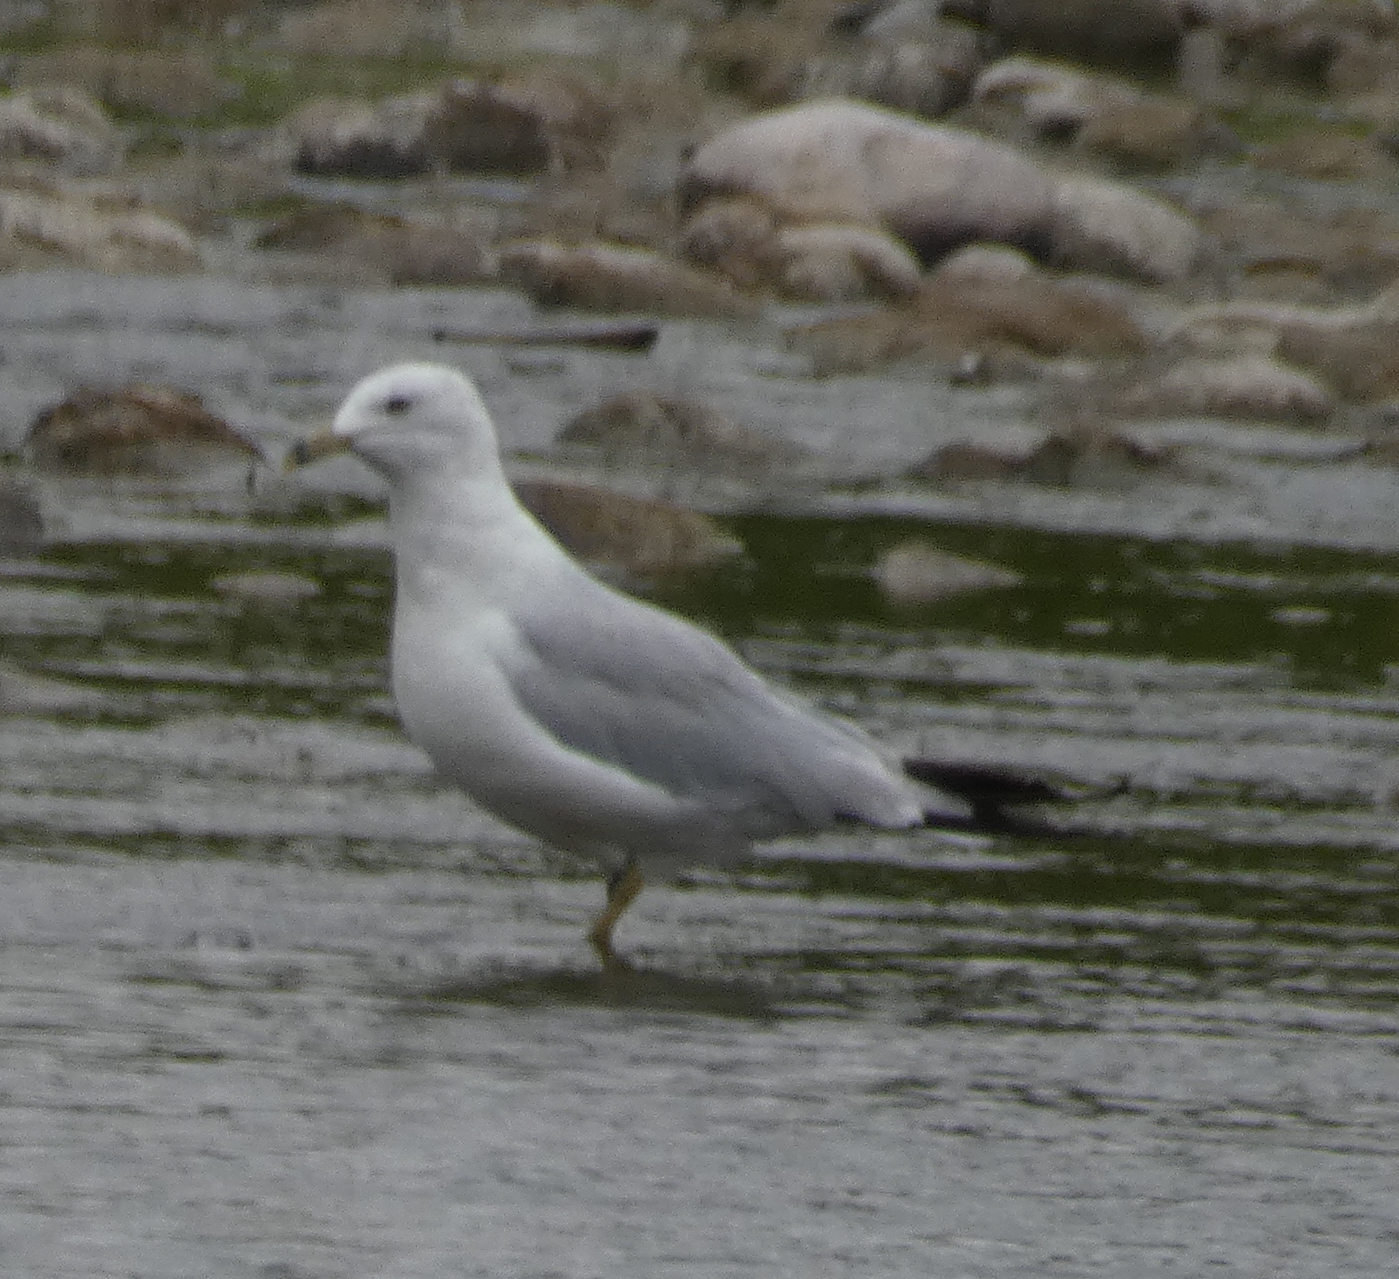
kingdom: Animalia
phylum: Chordata
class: Aves
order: Charadriiformes
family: Laridae
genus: Larus
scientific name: Larus delawarensis
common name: Ring-billed gull
